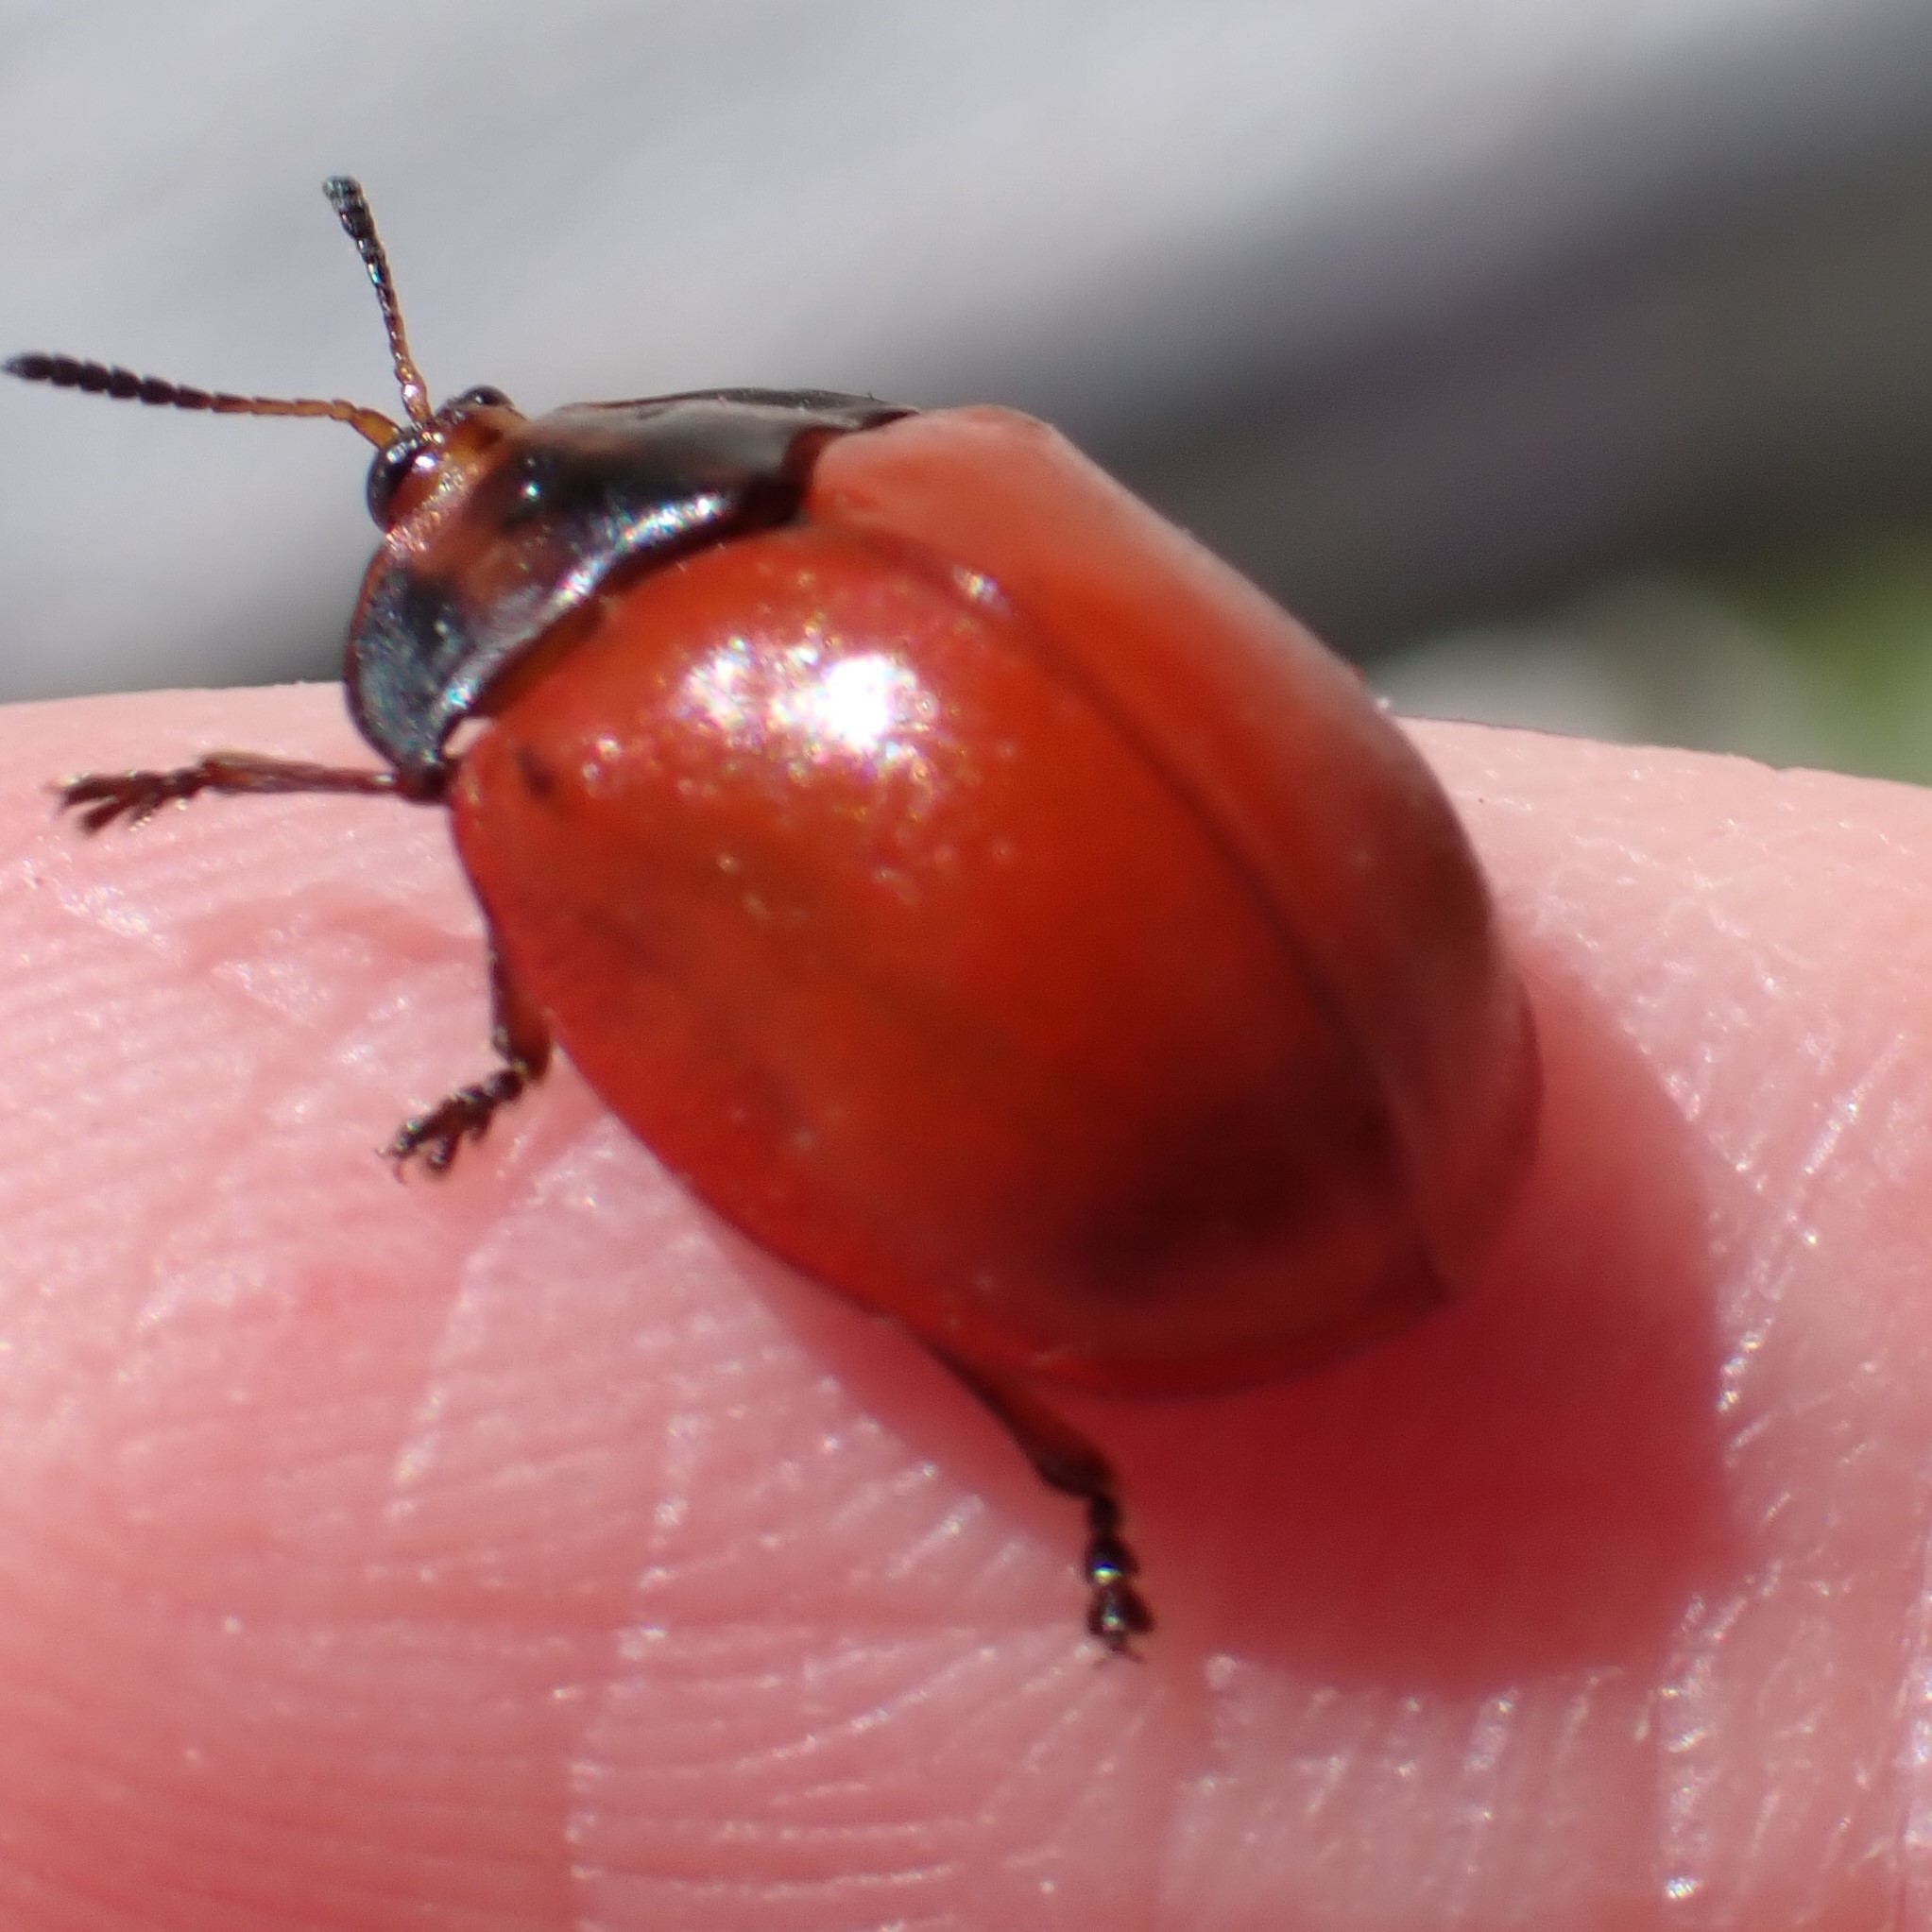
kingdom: Animalia
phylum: Arthropoda
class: Insecta
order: Coleoptera
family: Chrysomelidae
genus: Chelymorpha
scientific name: Chelymorpha cribraria
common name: Tortoise beetle
